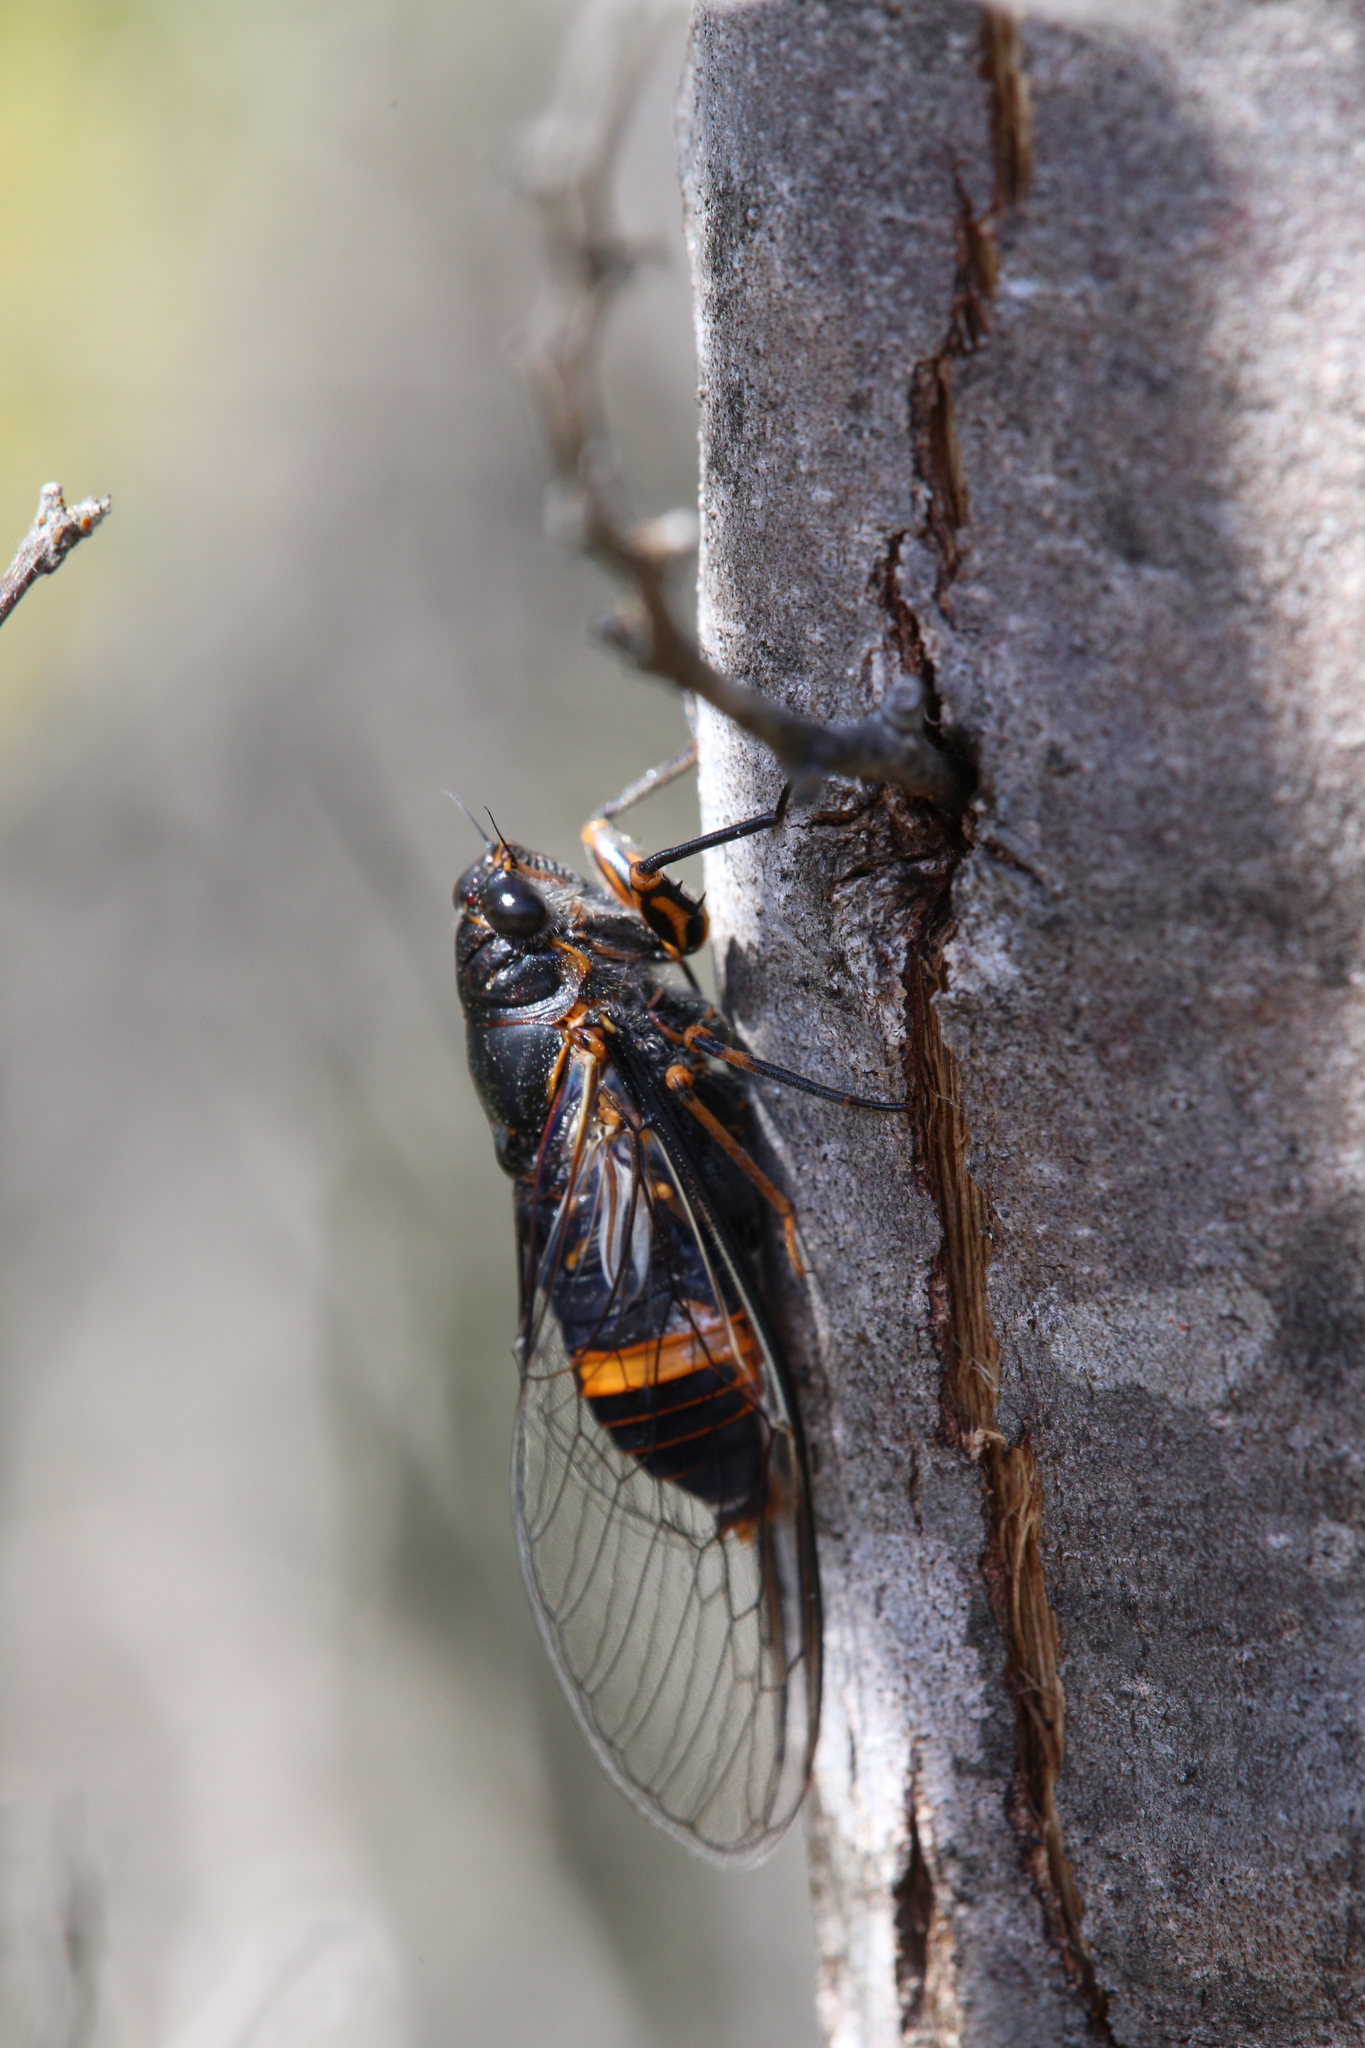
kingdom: Animalia
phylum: Arthropoda
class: Insecta
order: Hemiptera
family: Cicadidae
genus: Pyropsalta
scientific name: Pyropsalta melete
